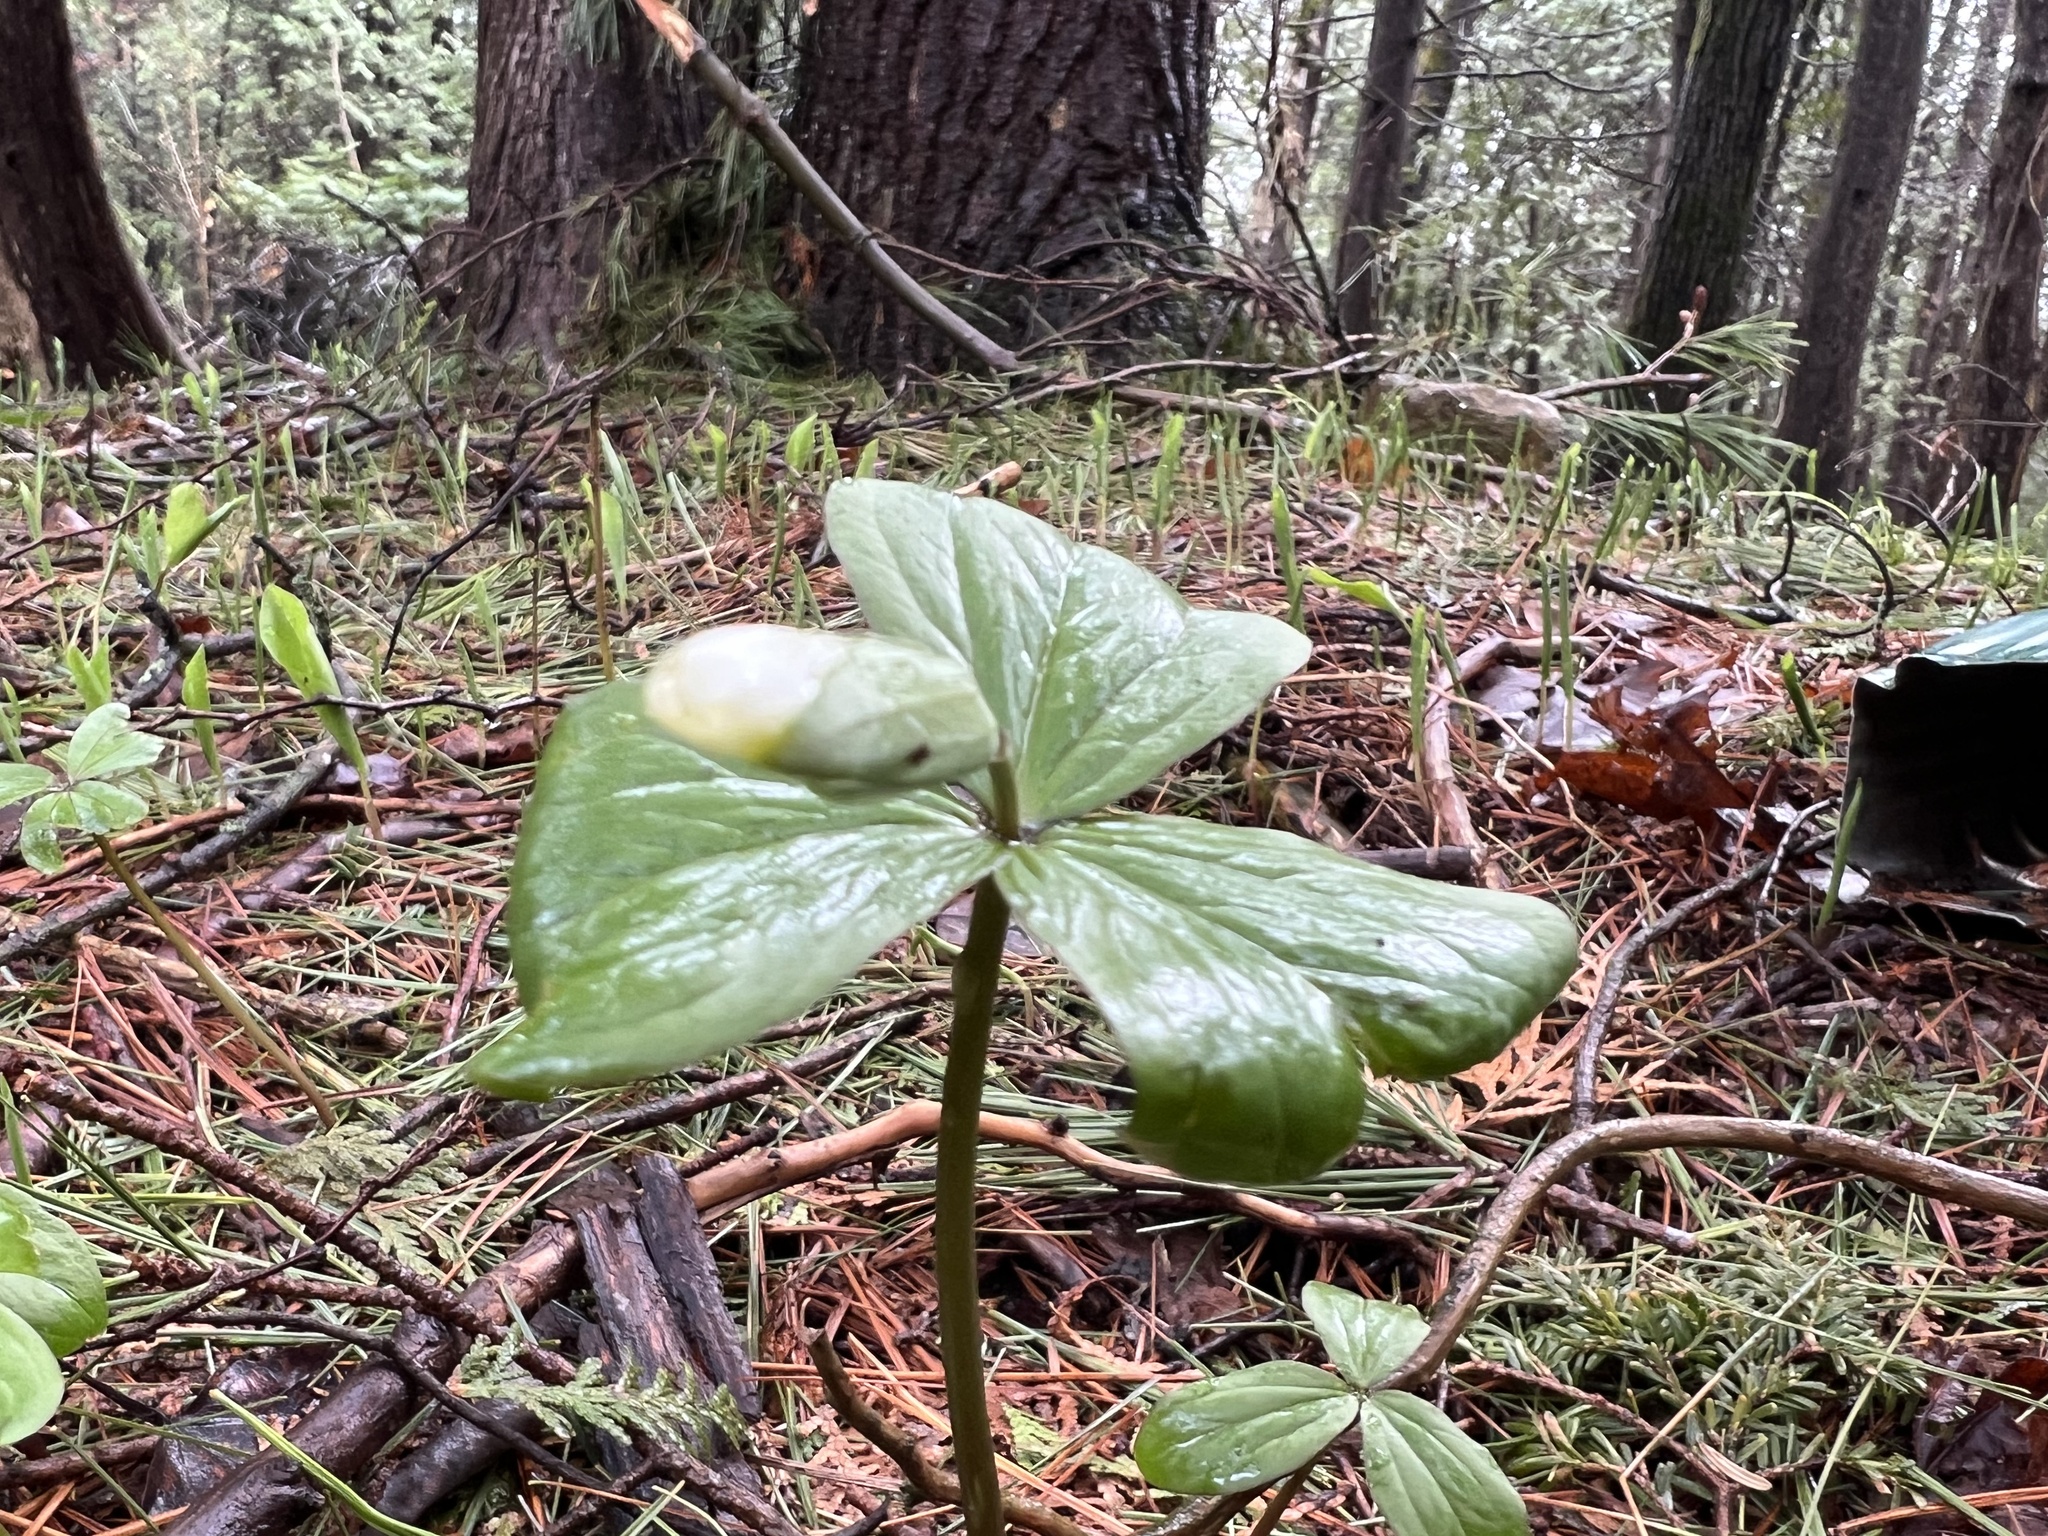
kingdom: Plantae
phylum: Tracheophyta
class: Liliopsida
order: Liliales
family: Melanthiaceae
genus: Trillium
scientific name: Trillium grandiflorum
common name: Great white trillium
